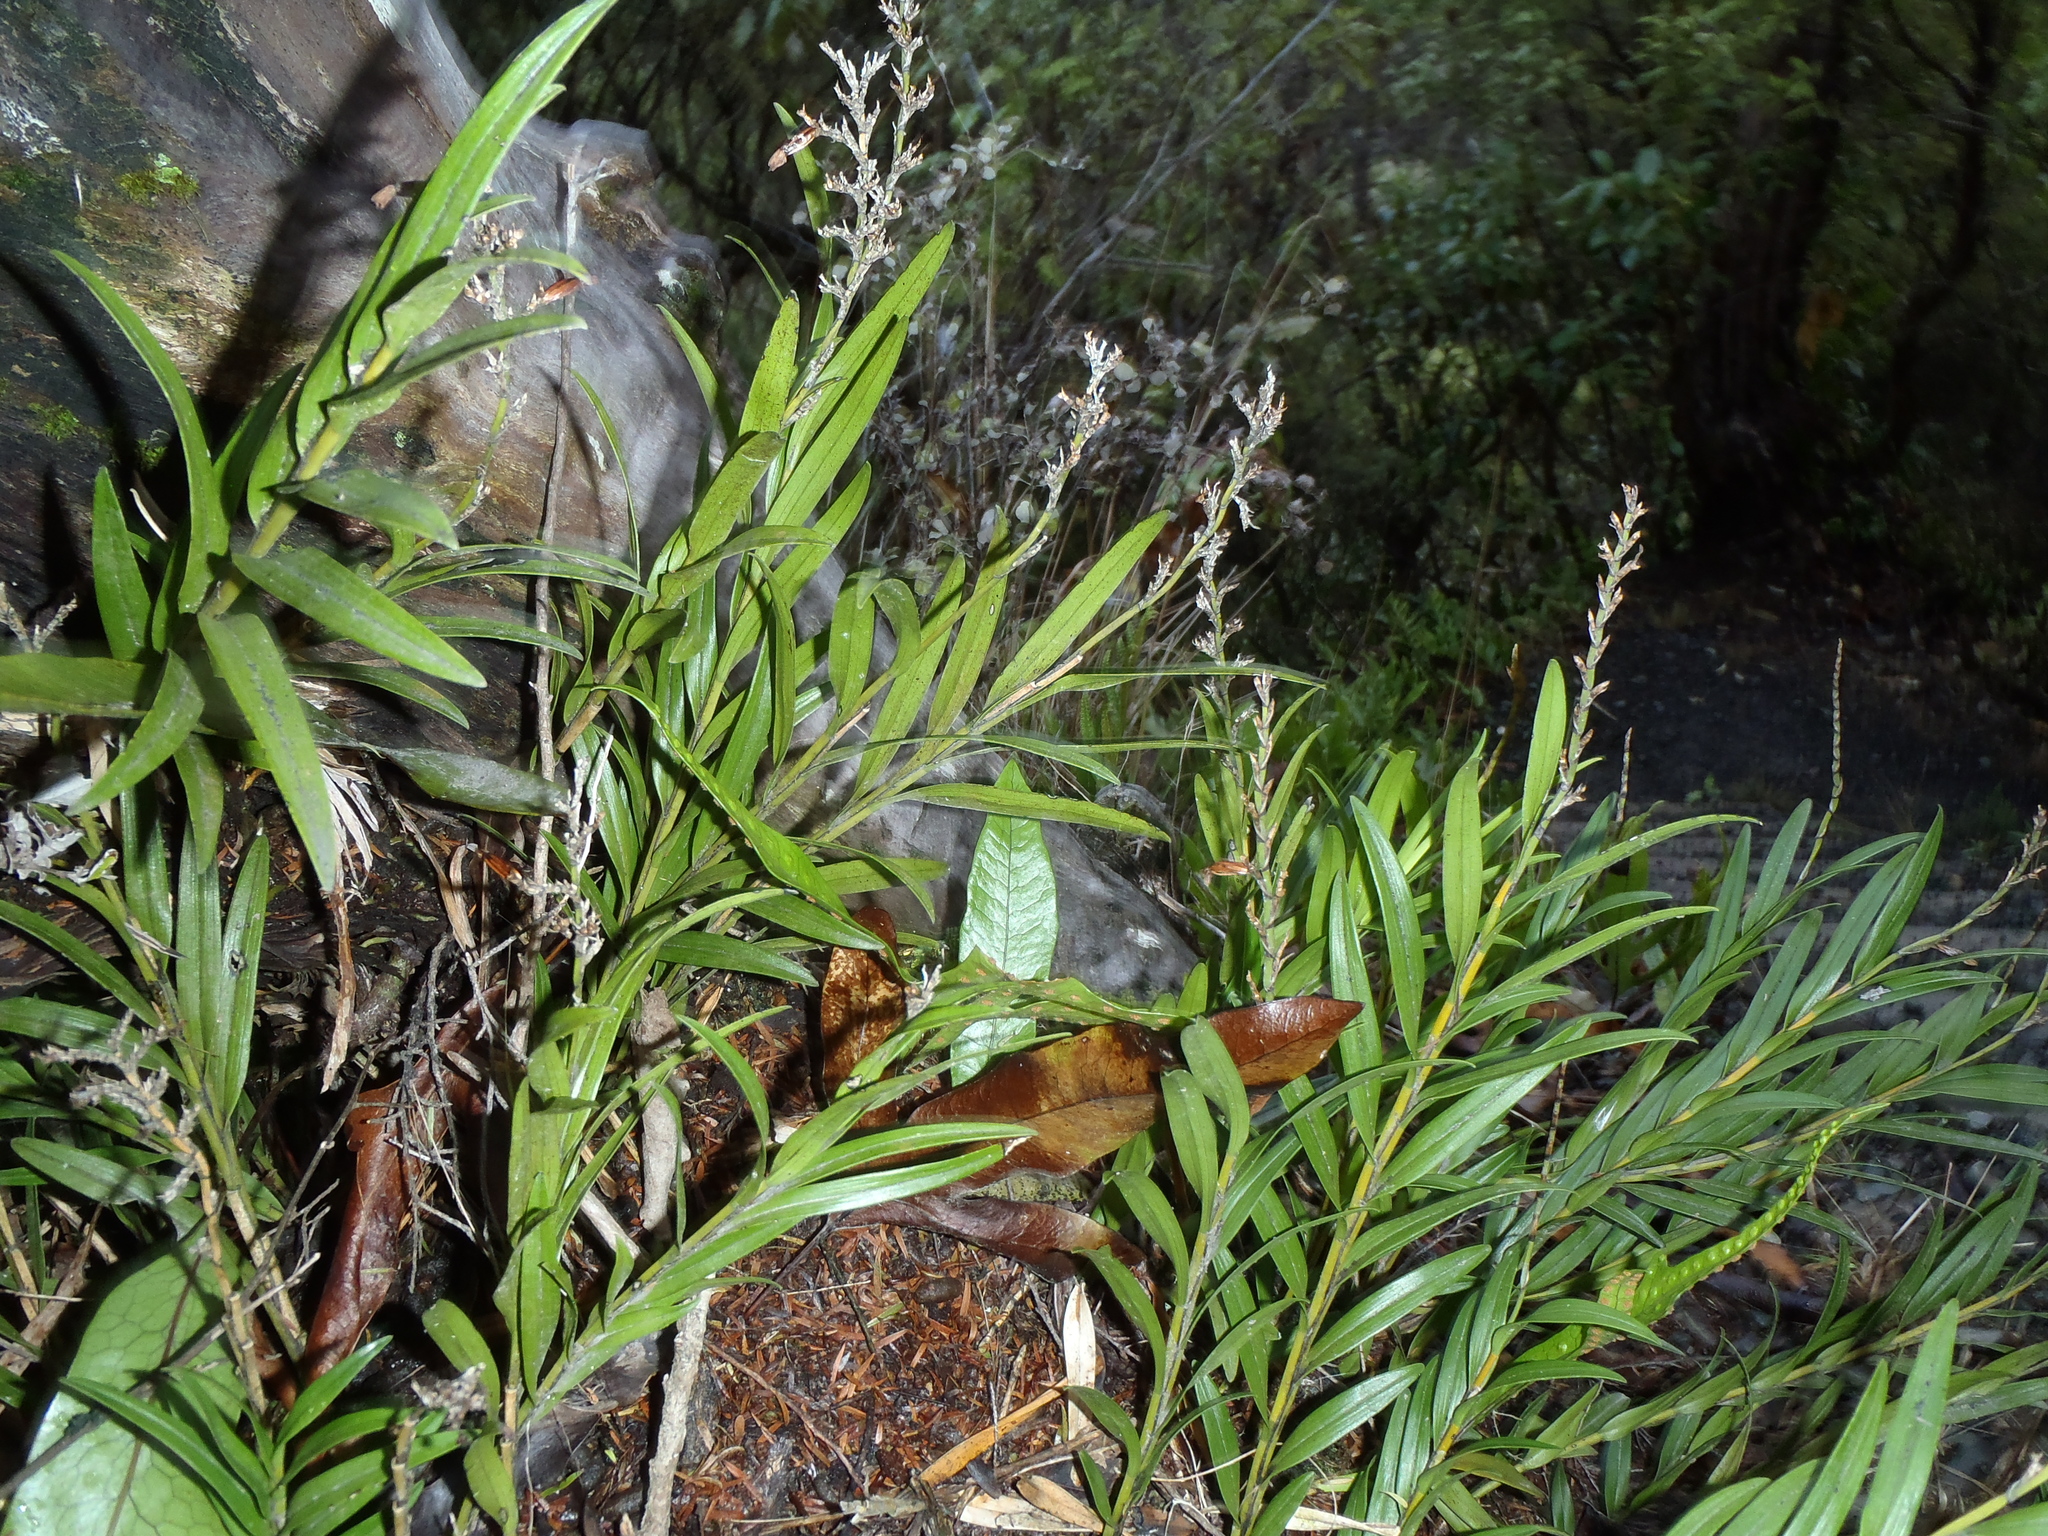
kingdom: Plantae
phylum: Tracheophyta
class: Liliopsida
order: Asparagales
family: Orchidaceae
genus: Earina
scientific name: Earina autumnalis
